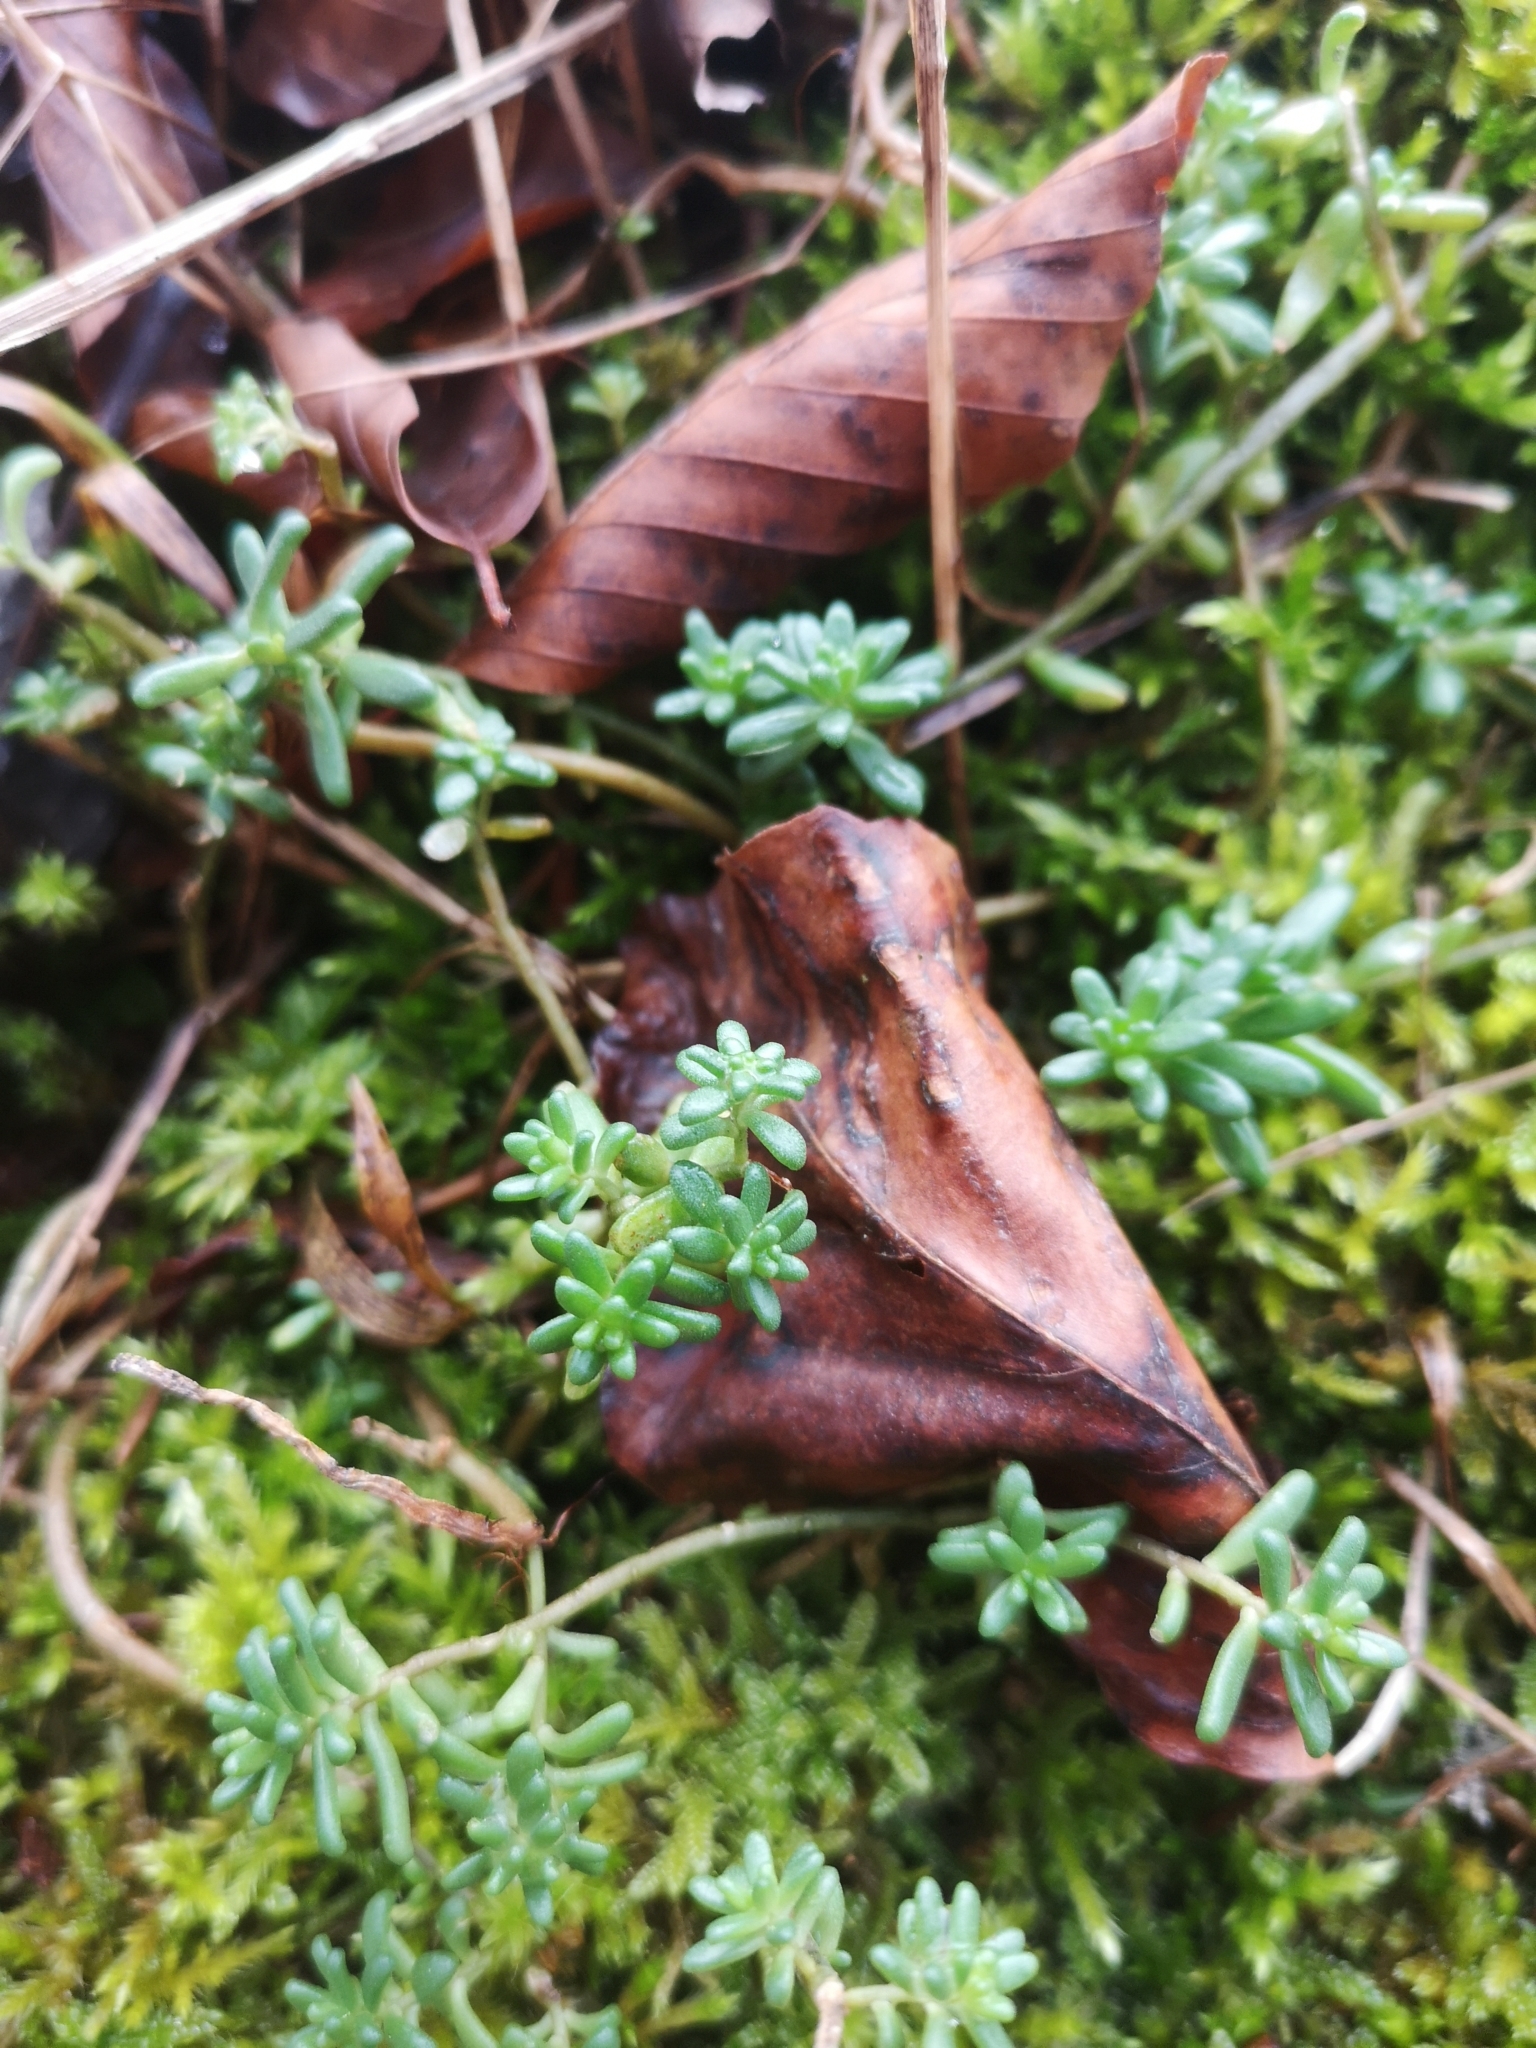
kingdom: Plantae
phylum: Tracheophyta
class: Magnoliopsida
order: Saxifragales
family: Crassulaceae
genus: Sedum
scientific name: Sedum album
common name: White stonecrop
